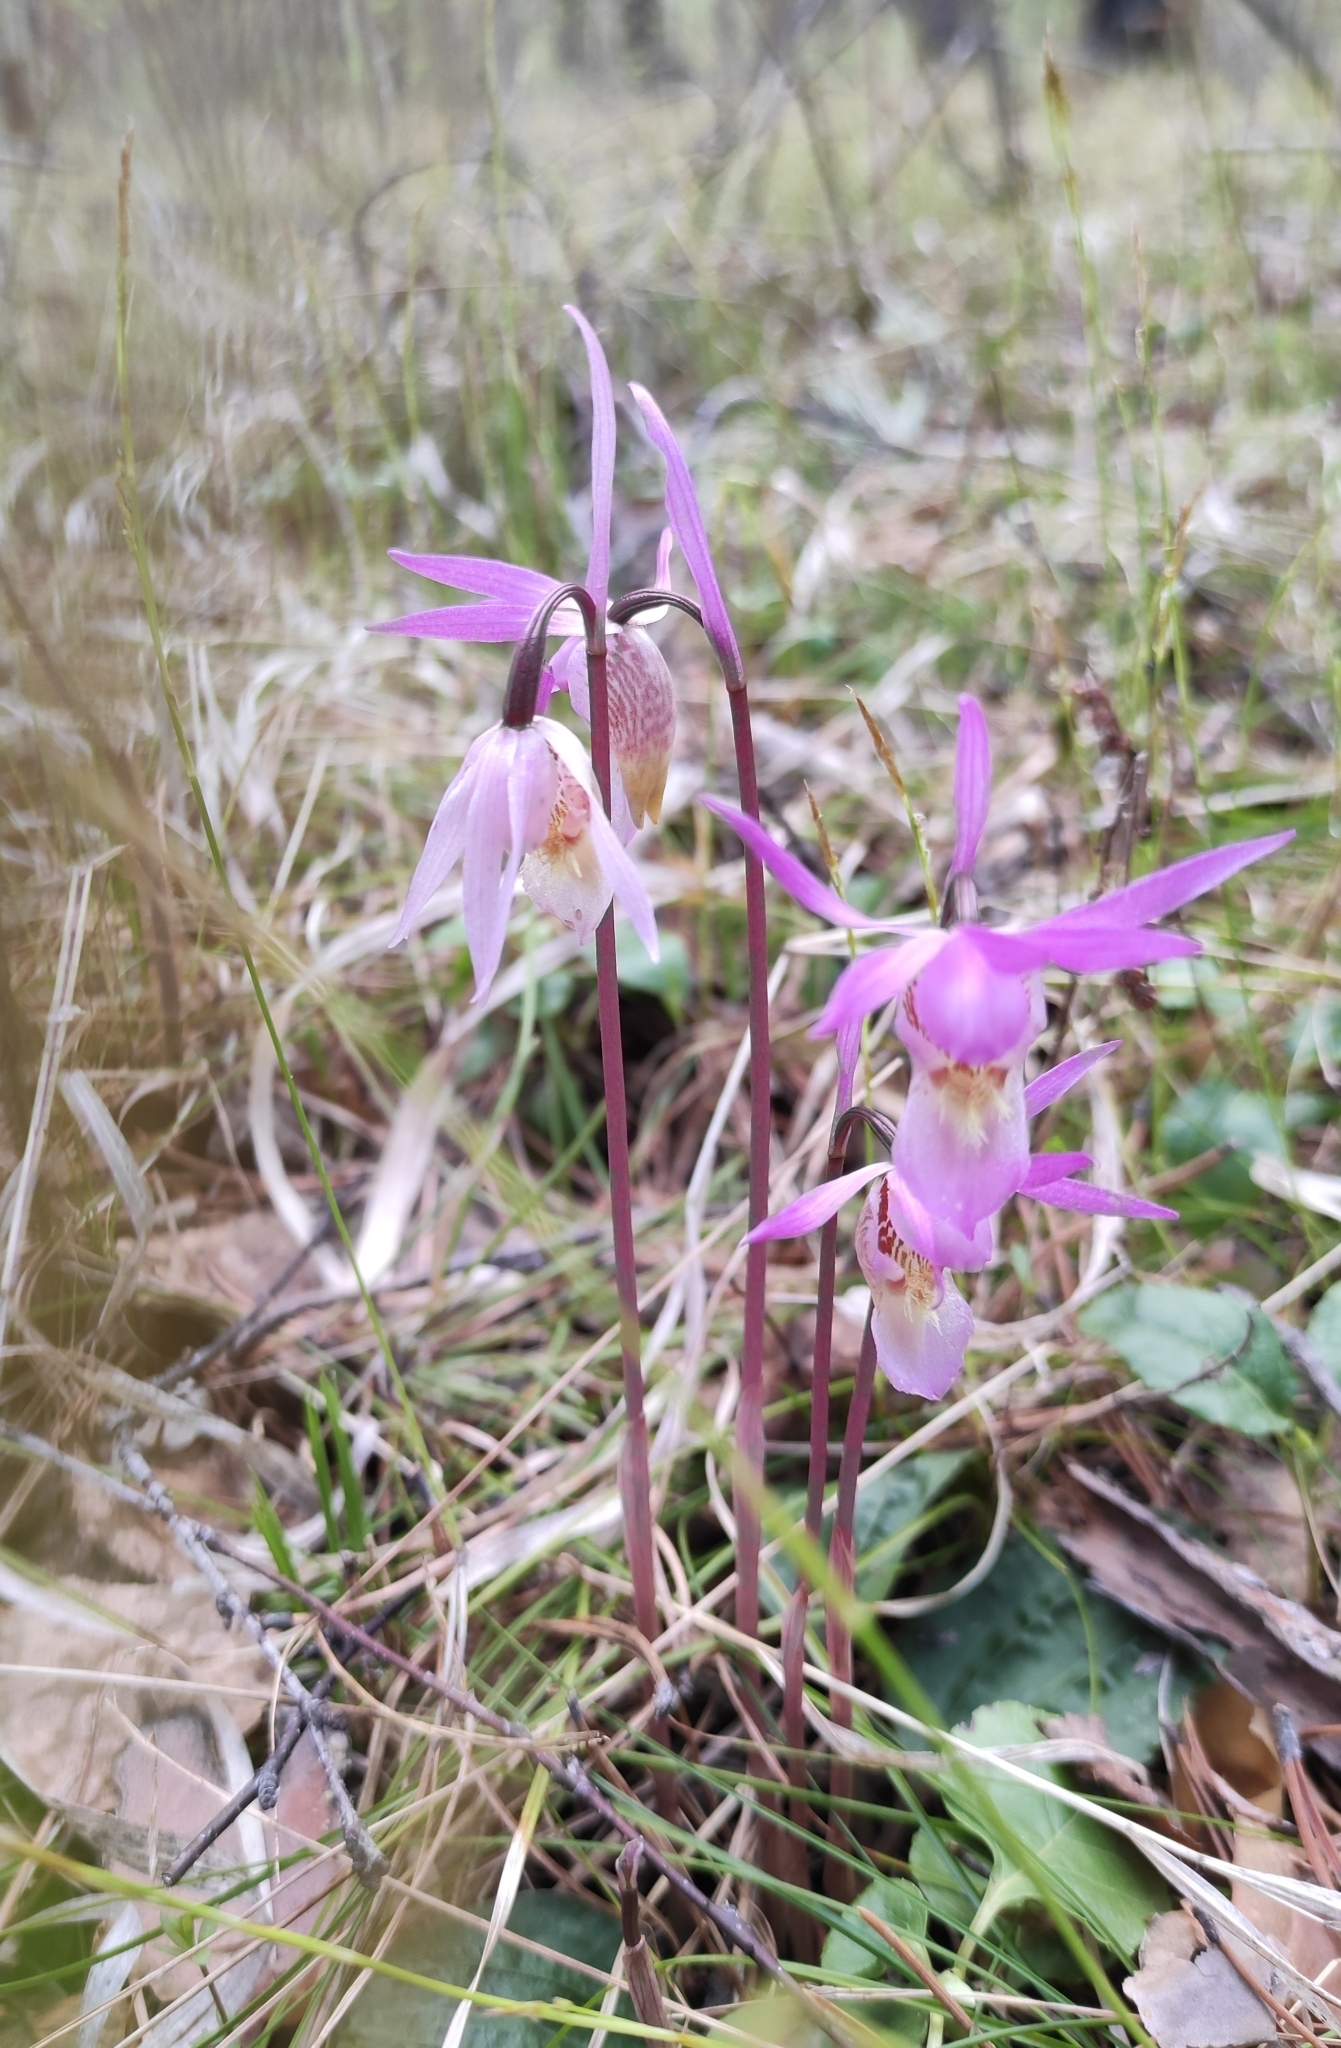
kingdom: Plantae
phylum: Tracheophyta
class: Liliopsida
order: Asparagales
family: Orchidaceae
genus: Calypso
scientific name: Calypso bulbosa
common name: Calypso
